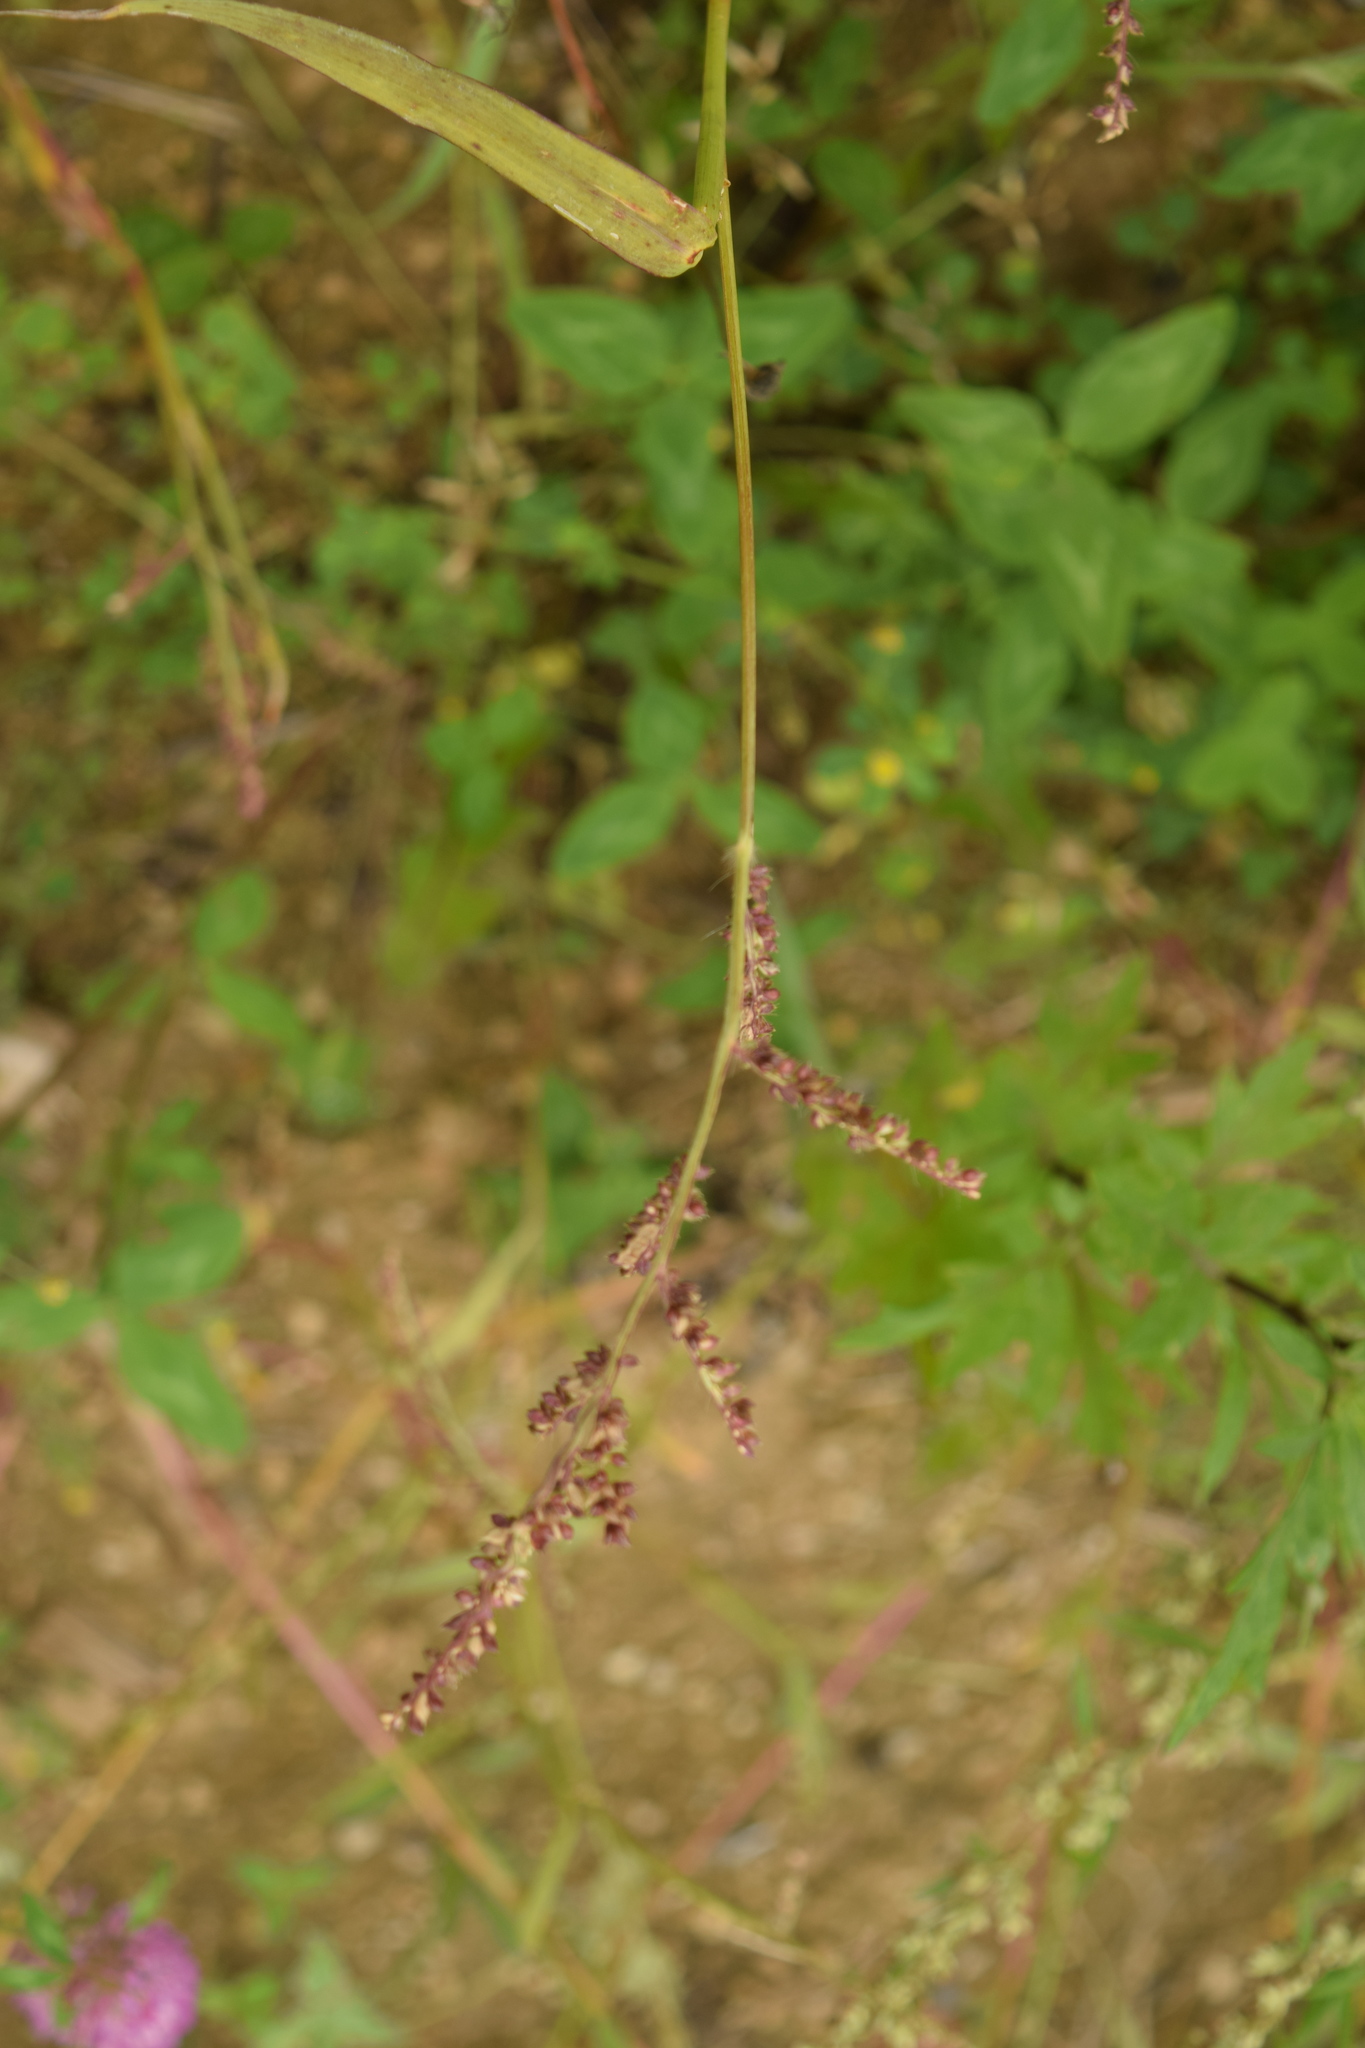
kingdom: Plantae
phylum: Tracheophyta
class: Liliopsida
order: Poales
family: Poaceae
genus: Echinochloa
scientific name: Echinochloa crus-galli
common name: Cockspur
